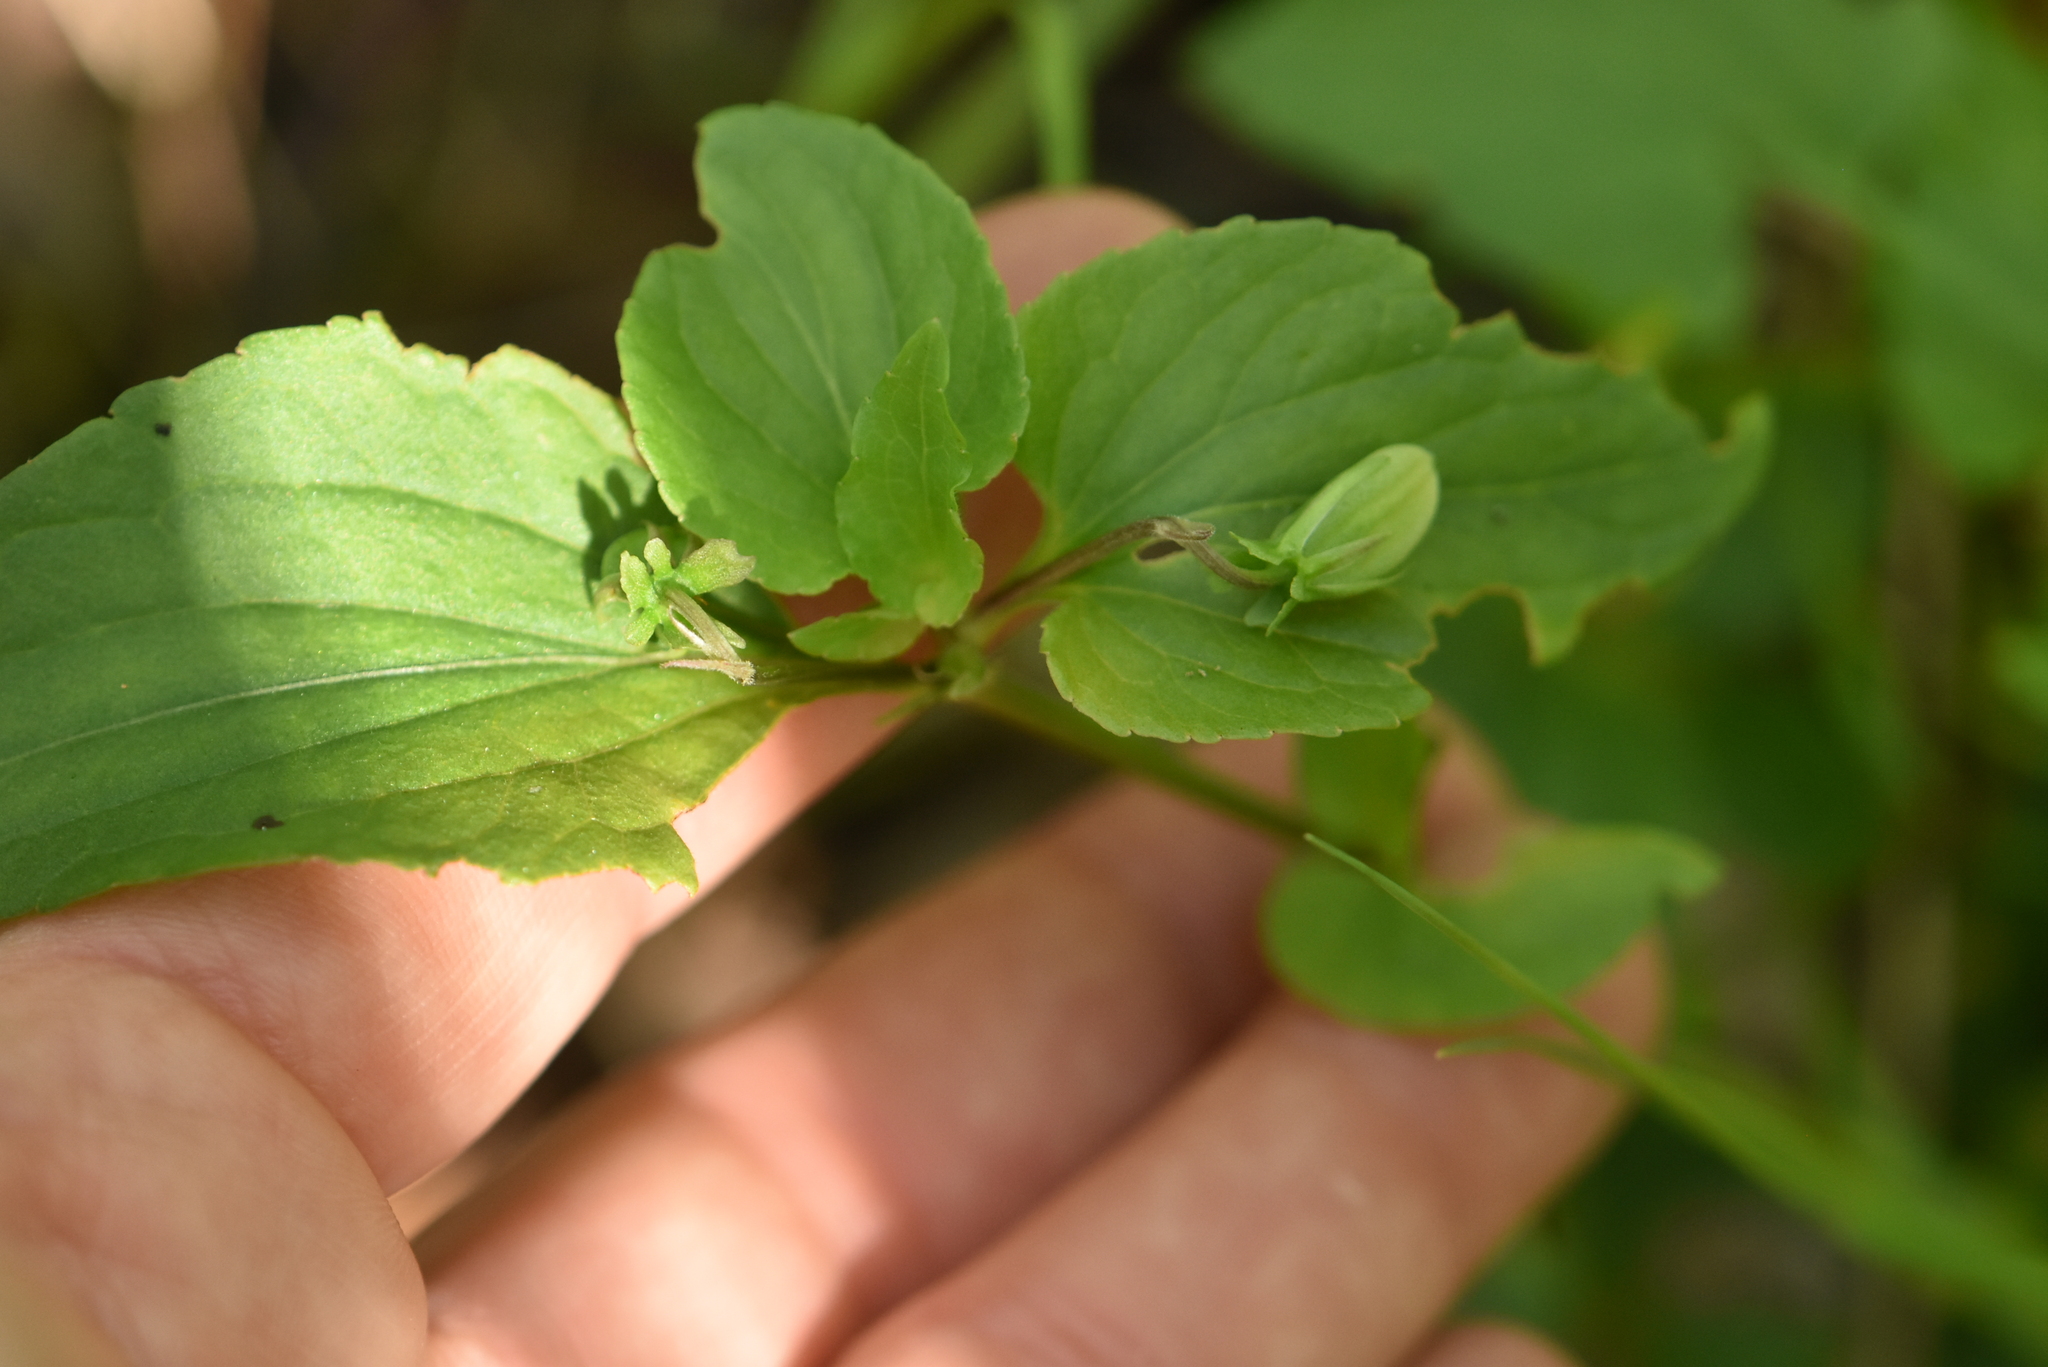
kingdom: Plantae
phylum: Tracheophyta
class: Magnoliopsida
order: Malpighiales
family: Violaceae
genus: Viola
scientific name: Viola
